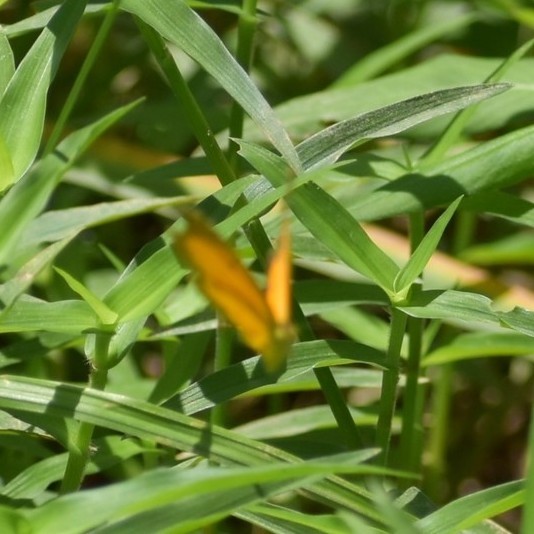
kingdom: Animalia
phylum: Arthropoda
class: Insecta
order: Lepidoptera
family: Pieridae
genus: Abaeis
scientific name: Abaeis nicippe
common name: Sleepy orange
